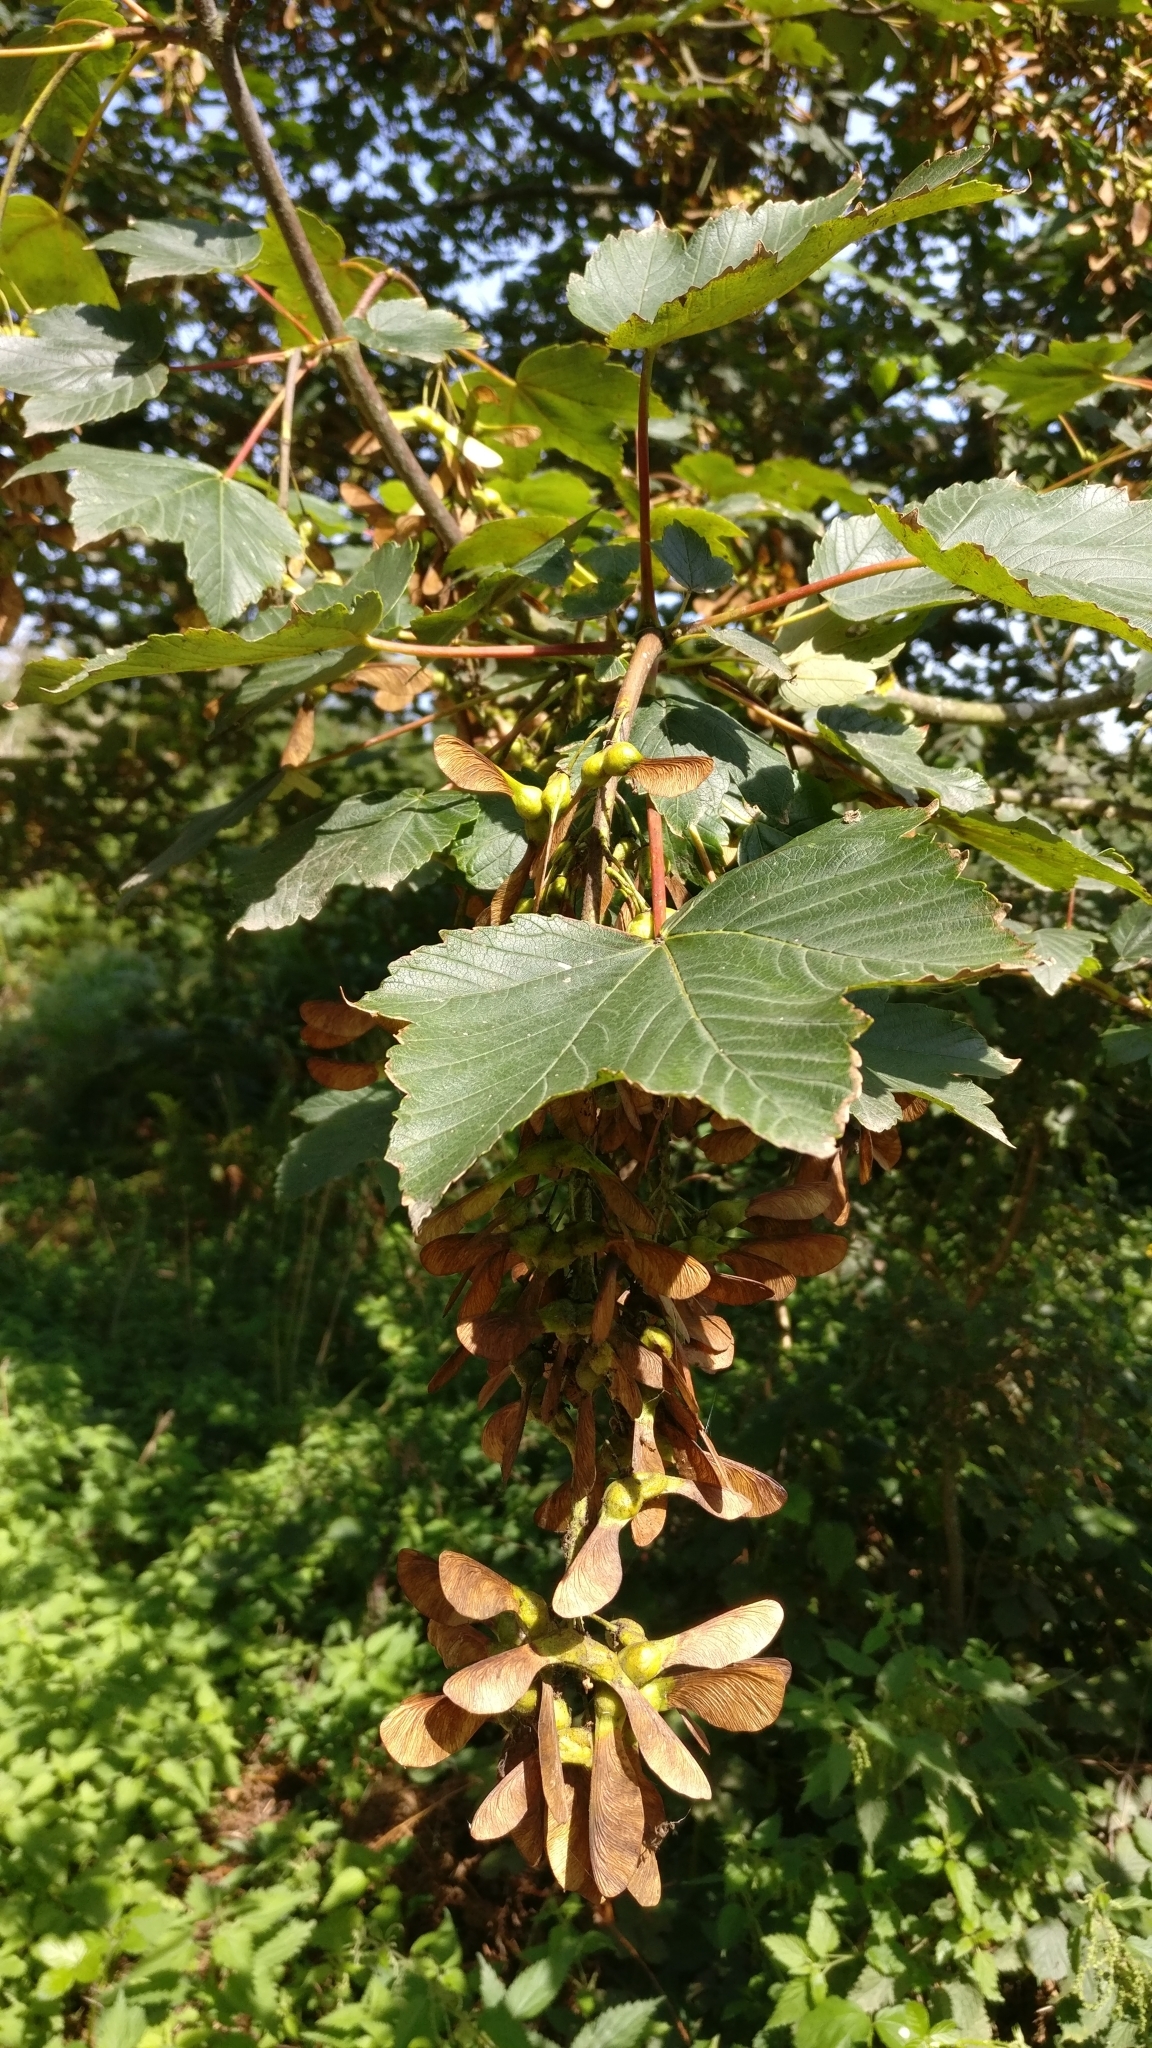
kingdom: Plantae
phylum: Tracheophyta
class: Magnoliopsida
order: Sapindales
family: Sapindaceae
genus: Acer
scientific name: Acer pseudoplatanus
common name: Sycamore
